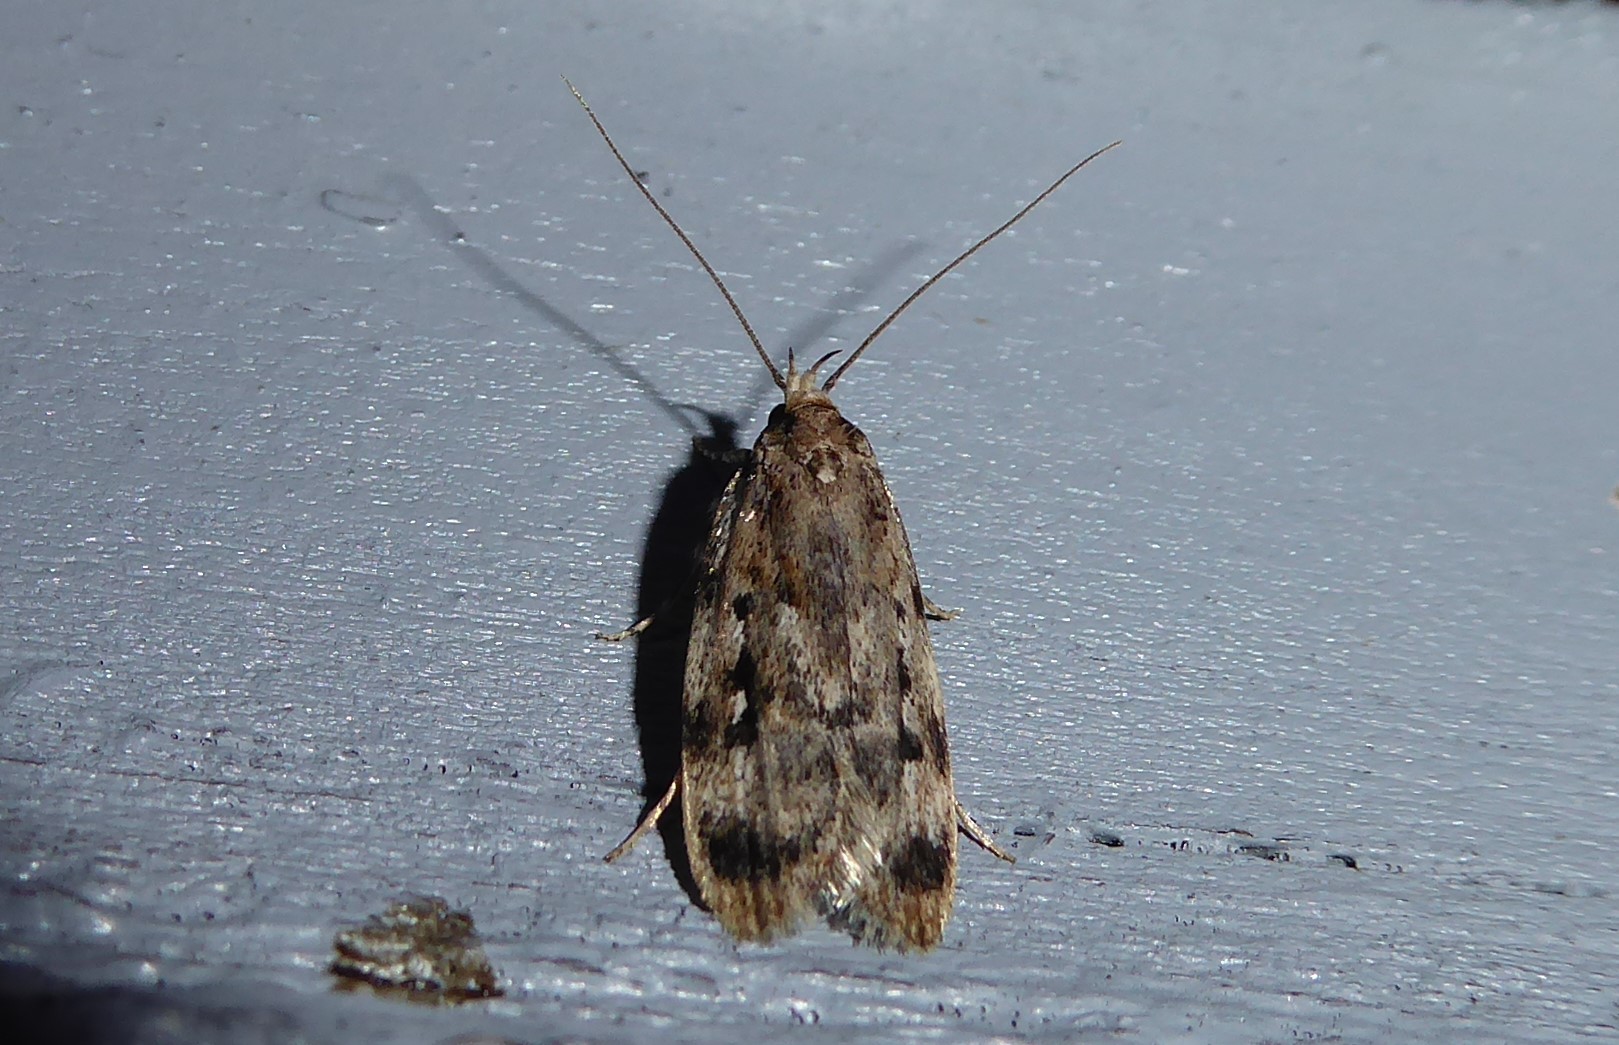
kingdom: Animalia
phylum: Arthropoda
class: Insecta
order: Lepidoptera
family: Oecophoridae
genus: Barea
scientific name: Barea exarcha
